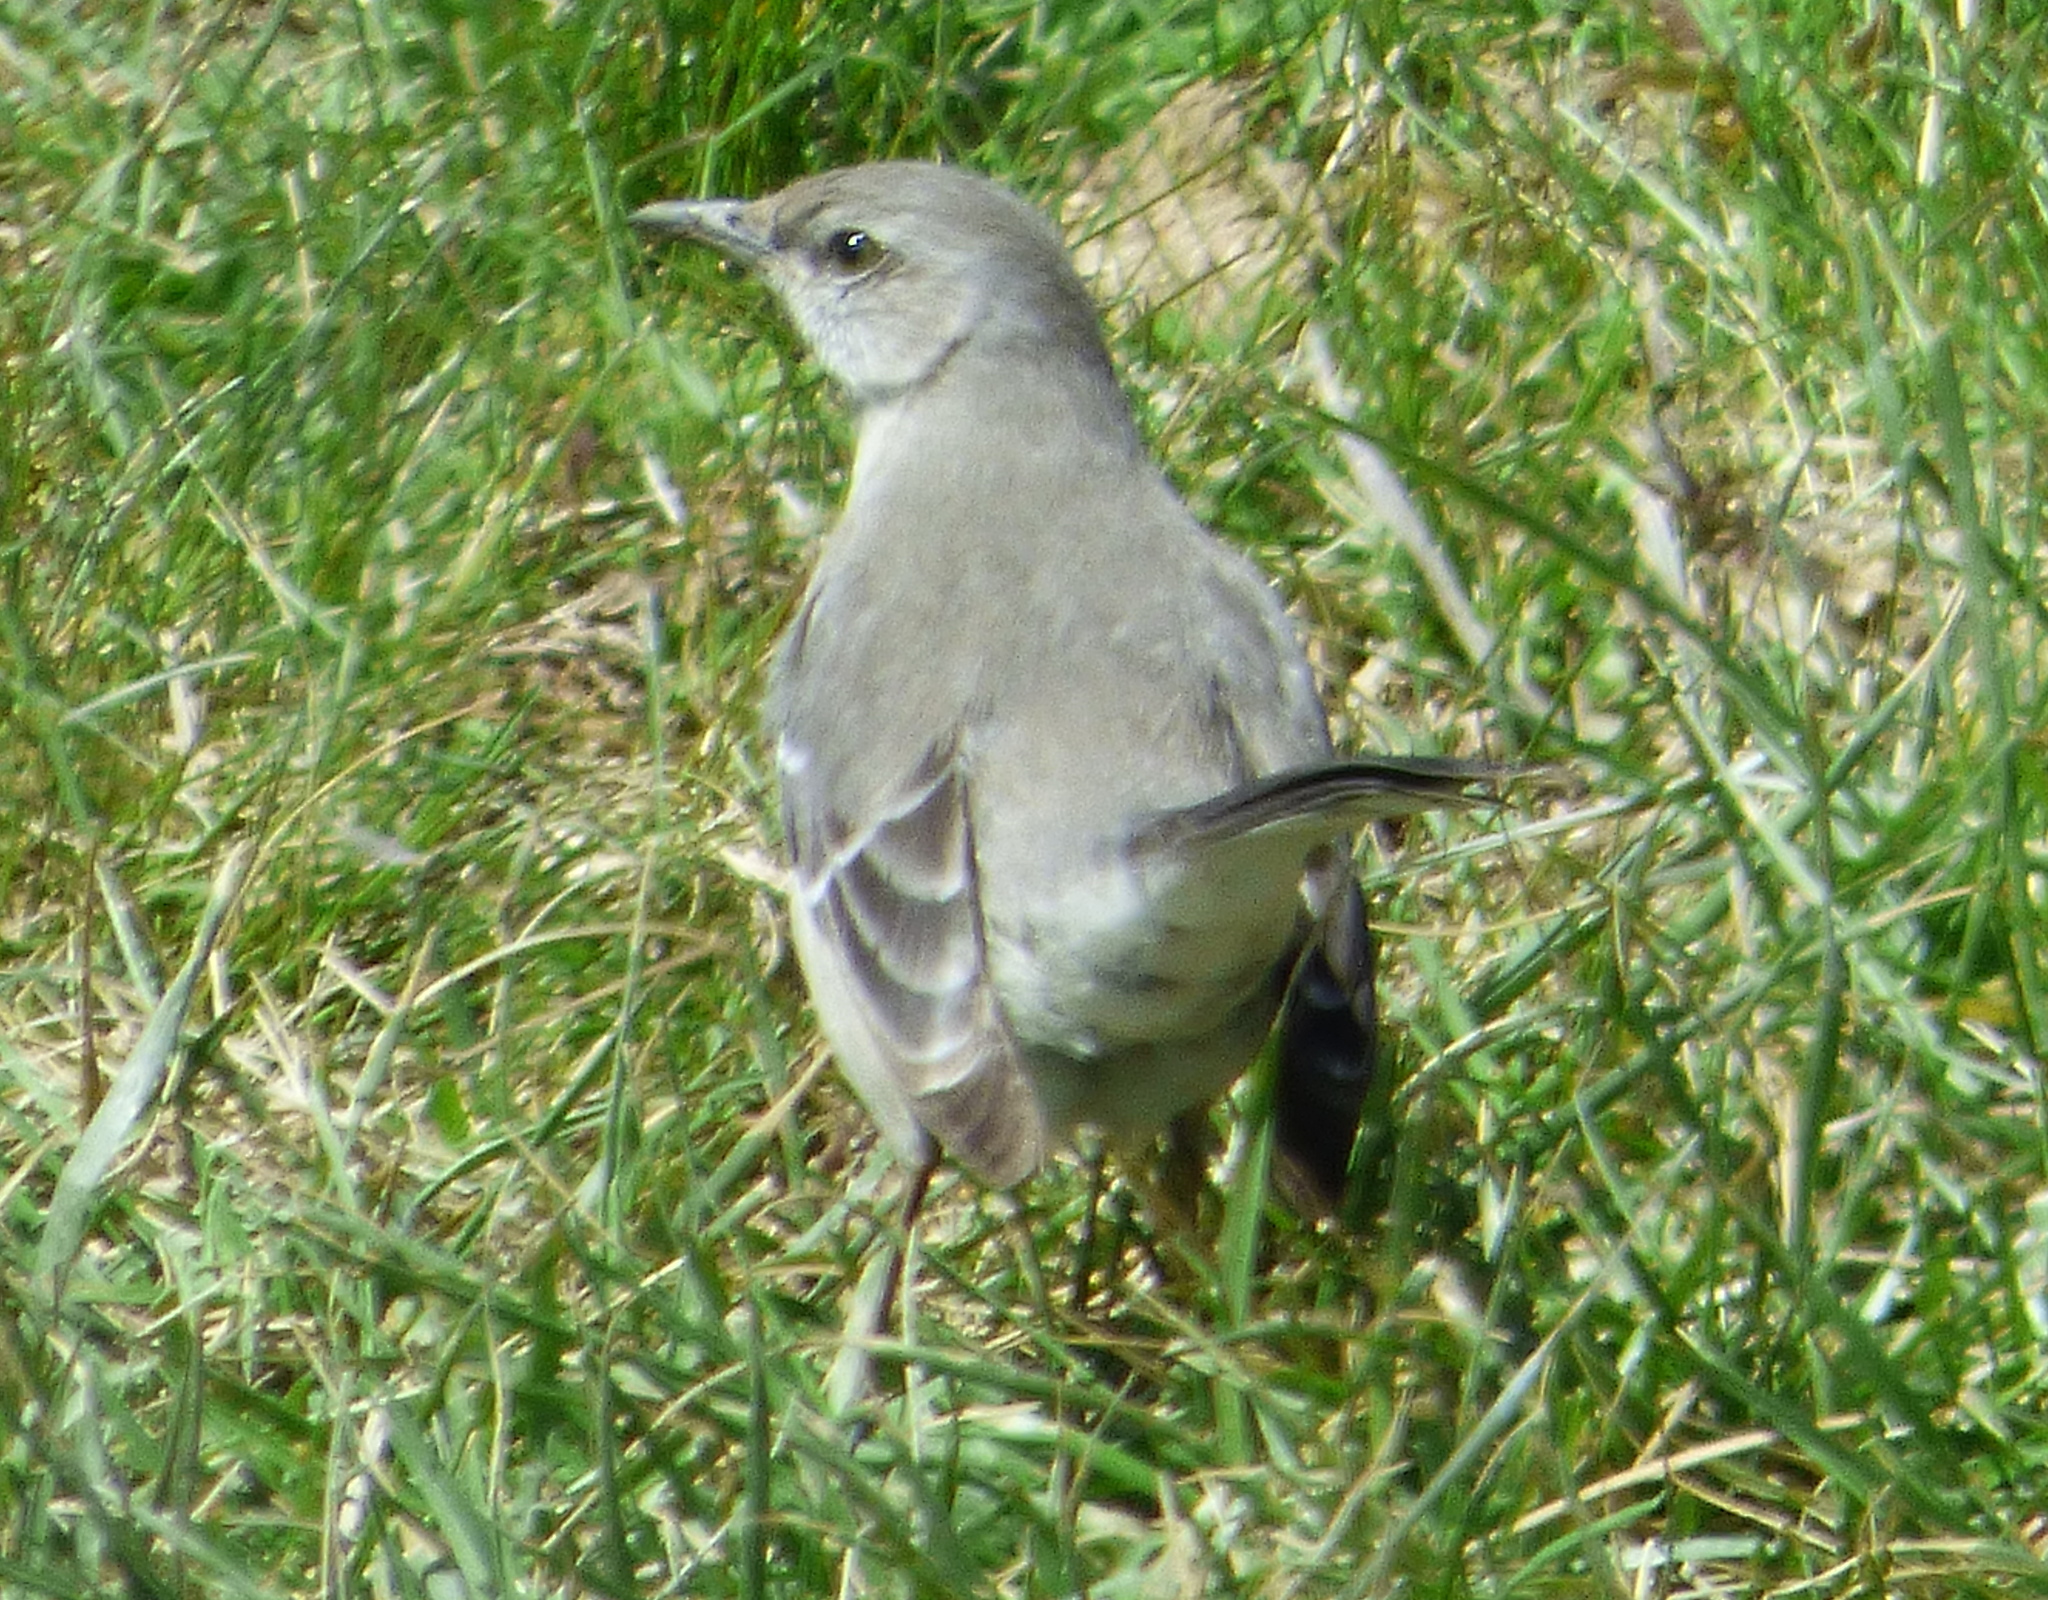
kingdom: Animalia
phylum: Chordata
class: Aves
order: Passeriformes
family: Mimidae
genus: Mimus
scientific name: Mimus polyglottos
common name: Northern mockingbird
